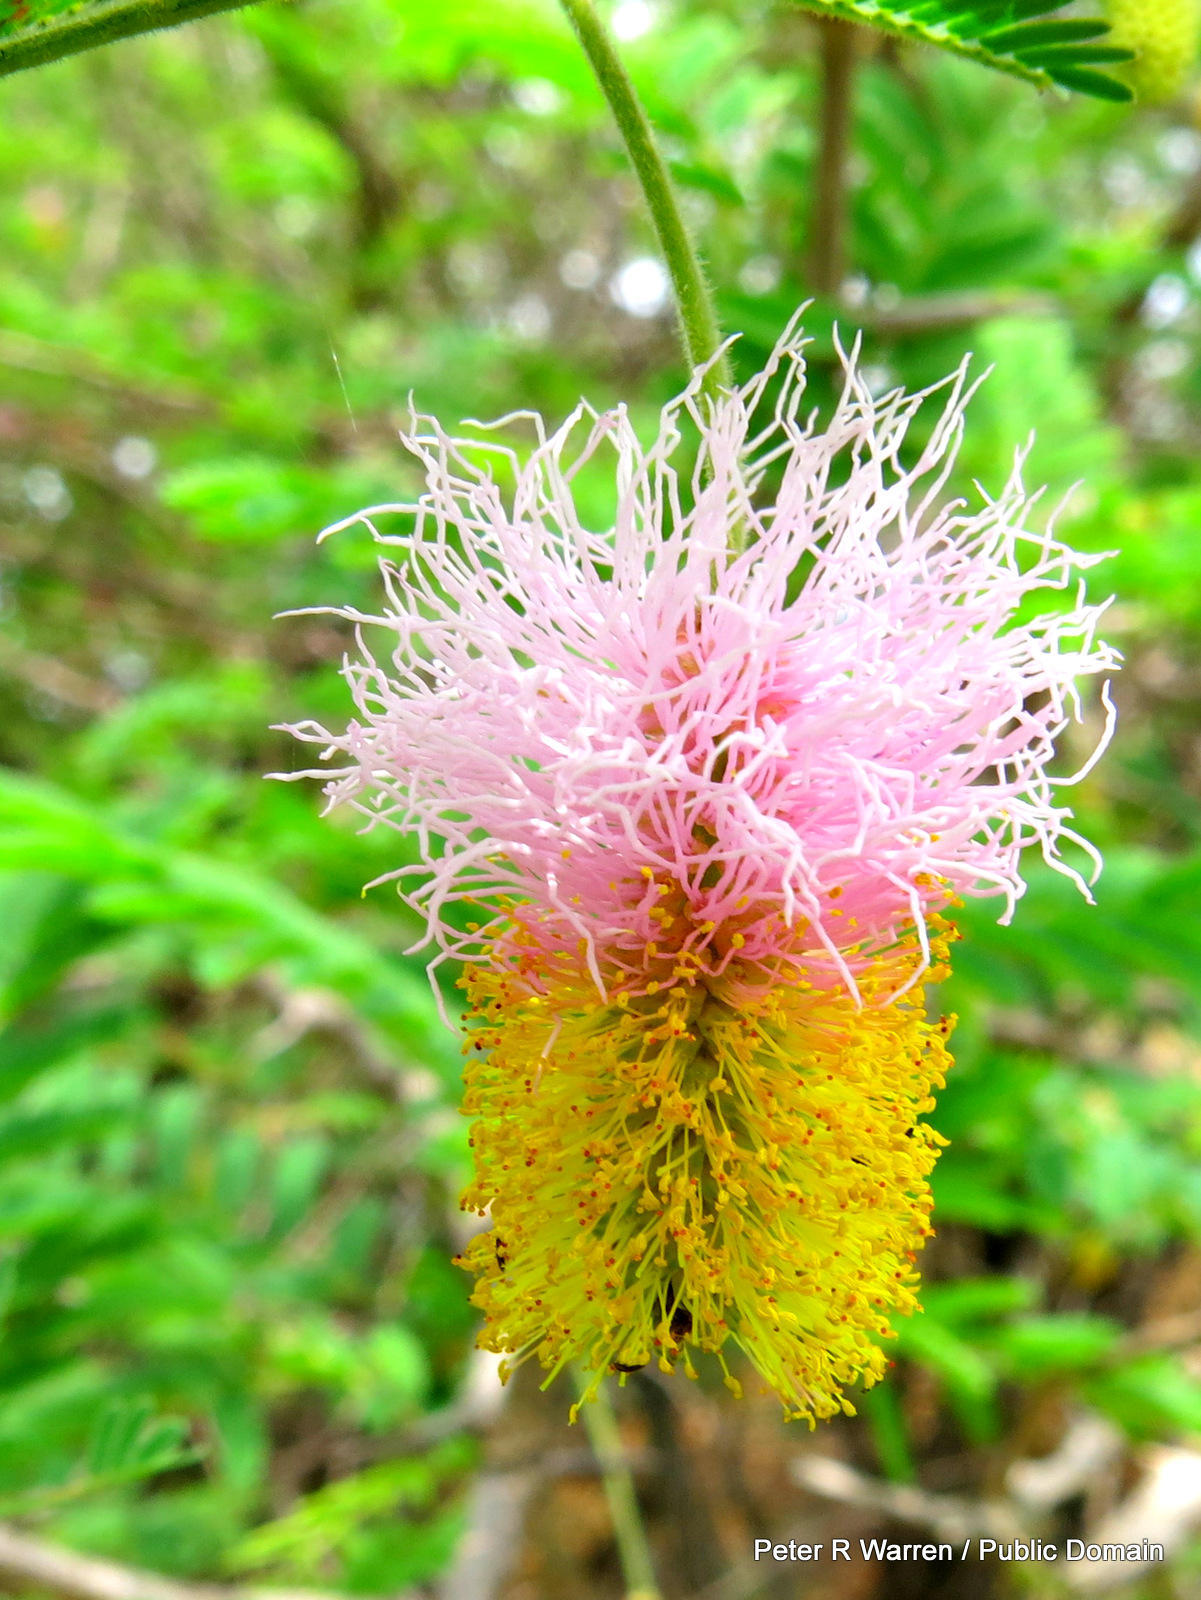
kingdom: Plantae
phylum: Tracheophyta
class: Magnoliopsida
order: Fabales
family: Fabaceae
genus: Dichrostachys
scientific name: Dichrostachys cinerea
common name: Sicklebush
